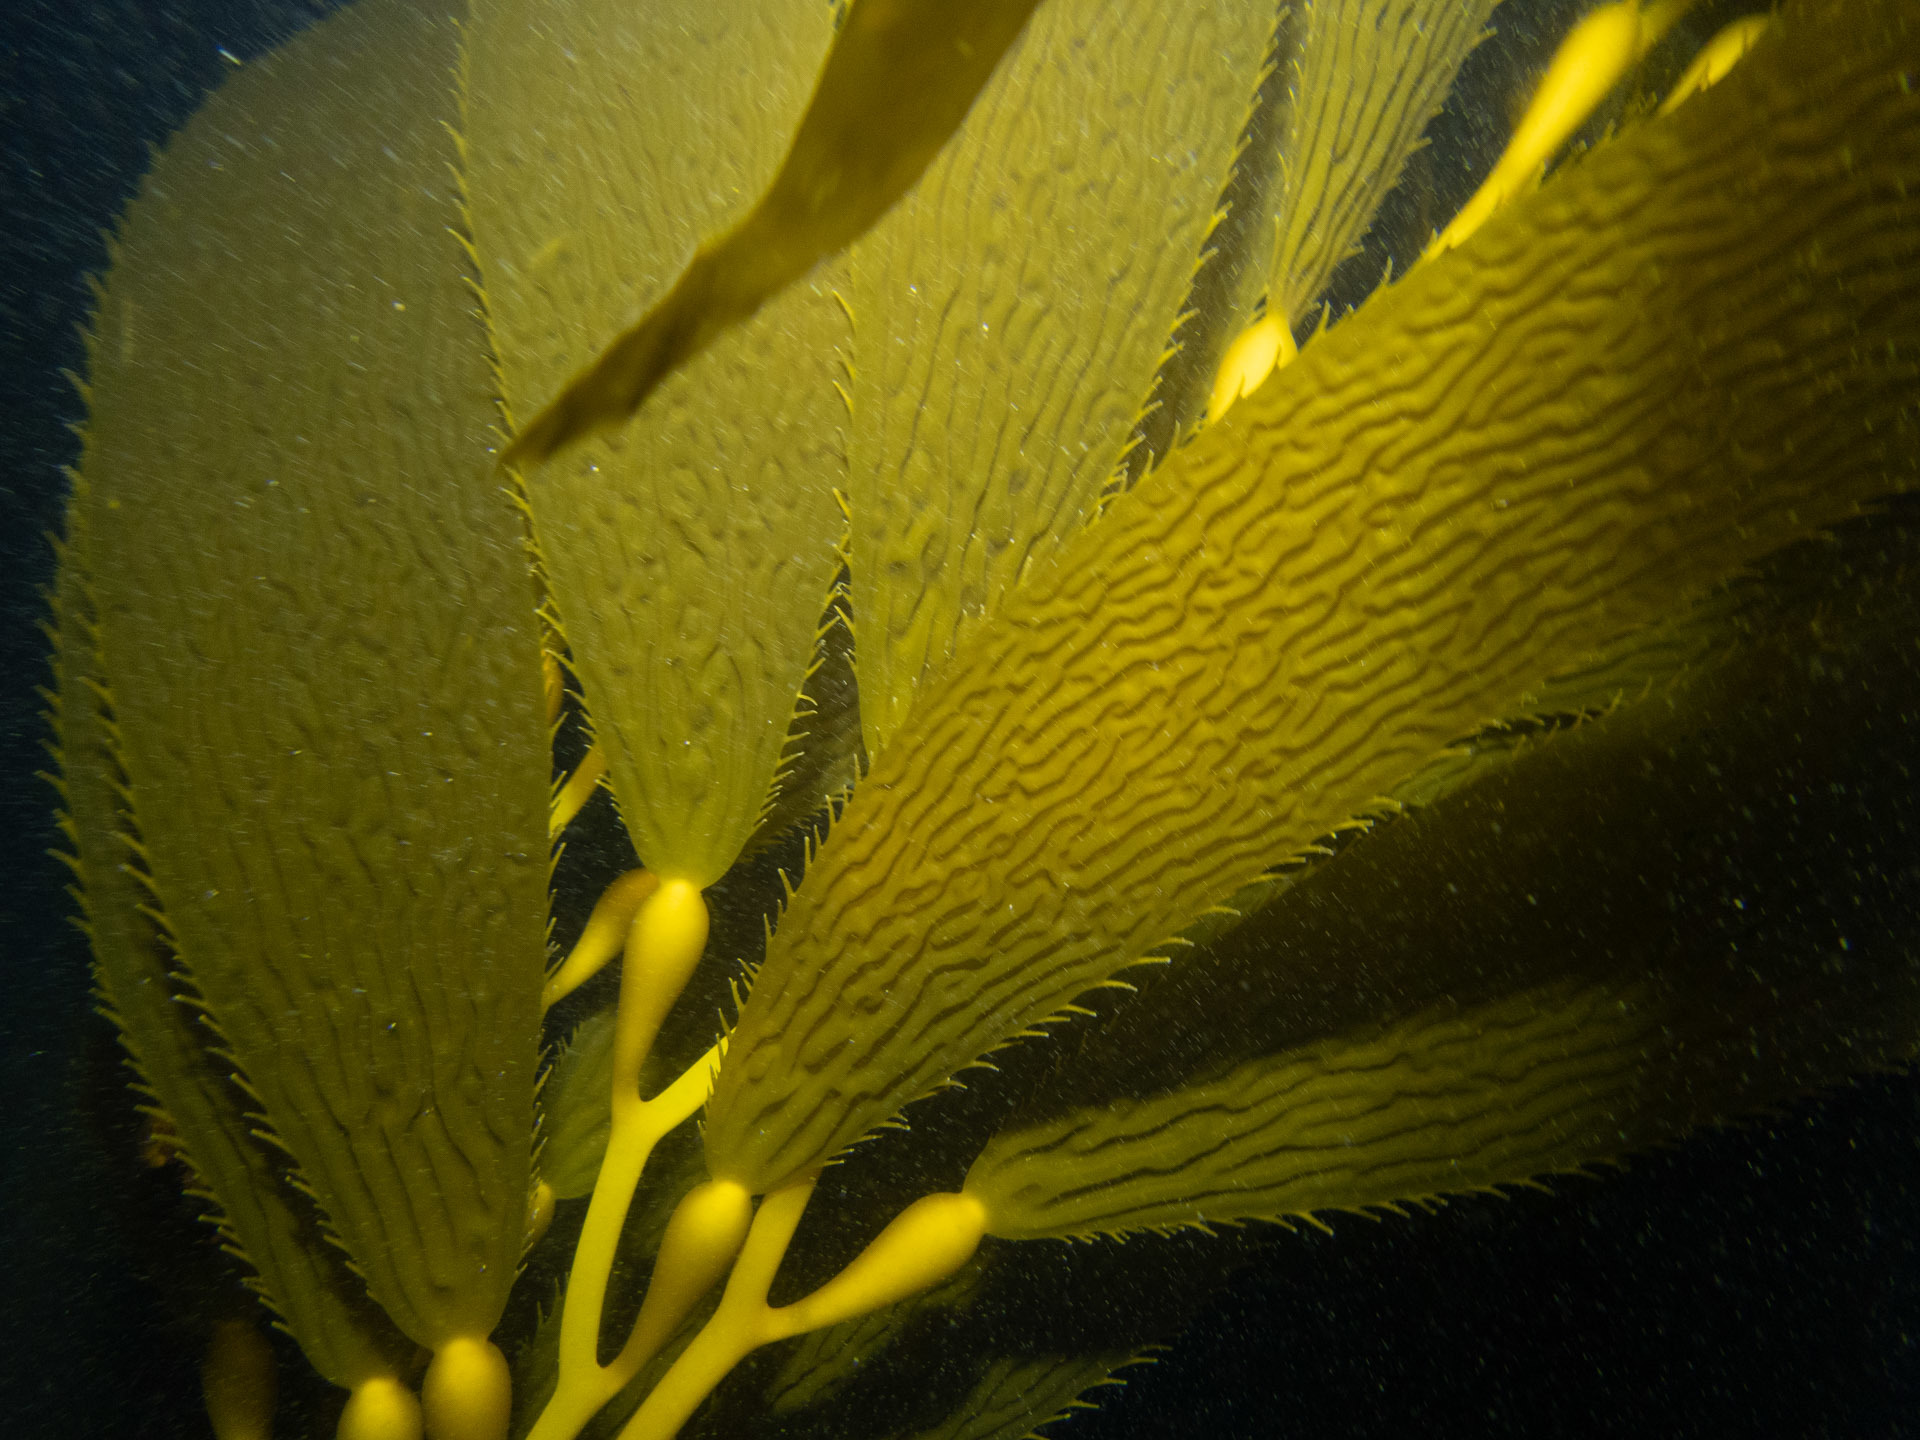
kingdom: Chromista
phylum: Ochrophyta
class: Phaeophyceae
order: Laminariales
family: Laminariaceae
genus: Macrocystis
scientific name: Macrocystis pyrifera
